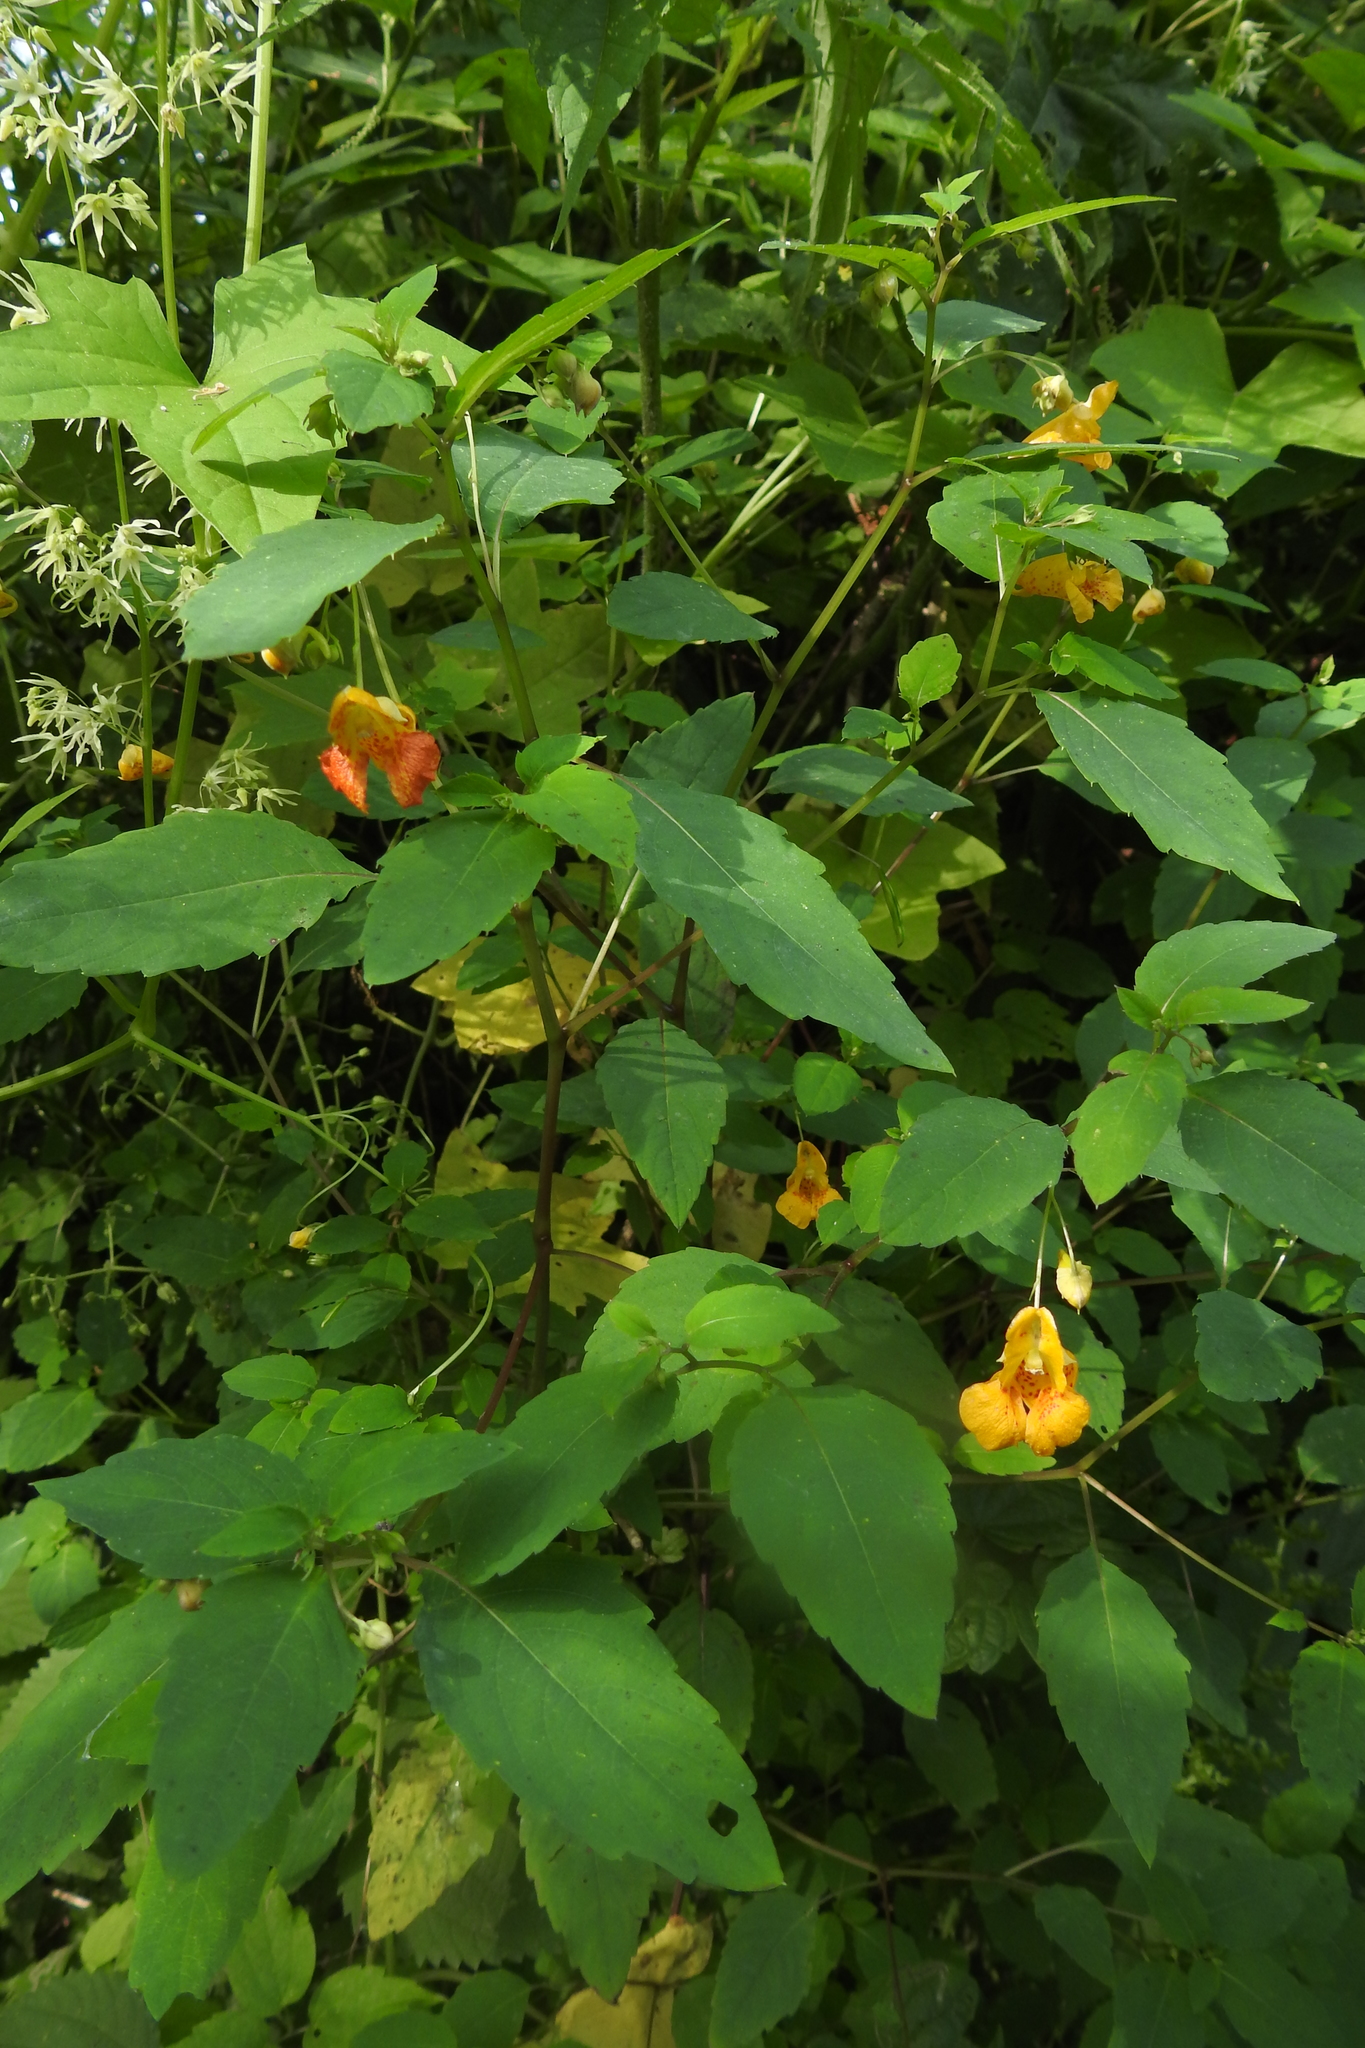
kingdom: Plantae
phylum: Tracheophyta
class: Magnoliopsida
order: Ericales
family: Balsaminaceae
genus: Impatiens
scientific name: Impatiens capensis
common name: Orange balsam
